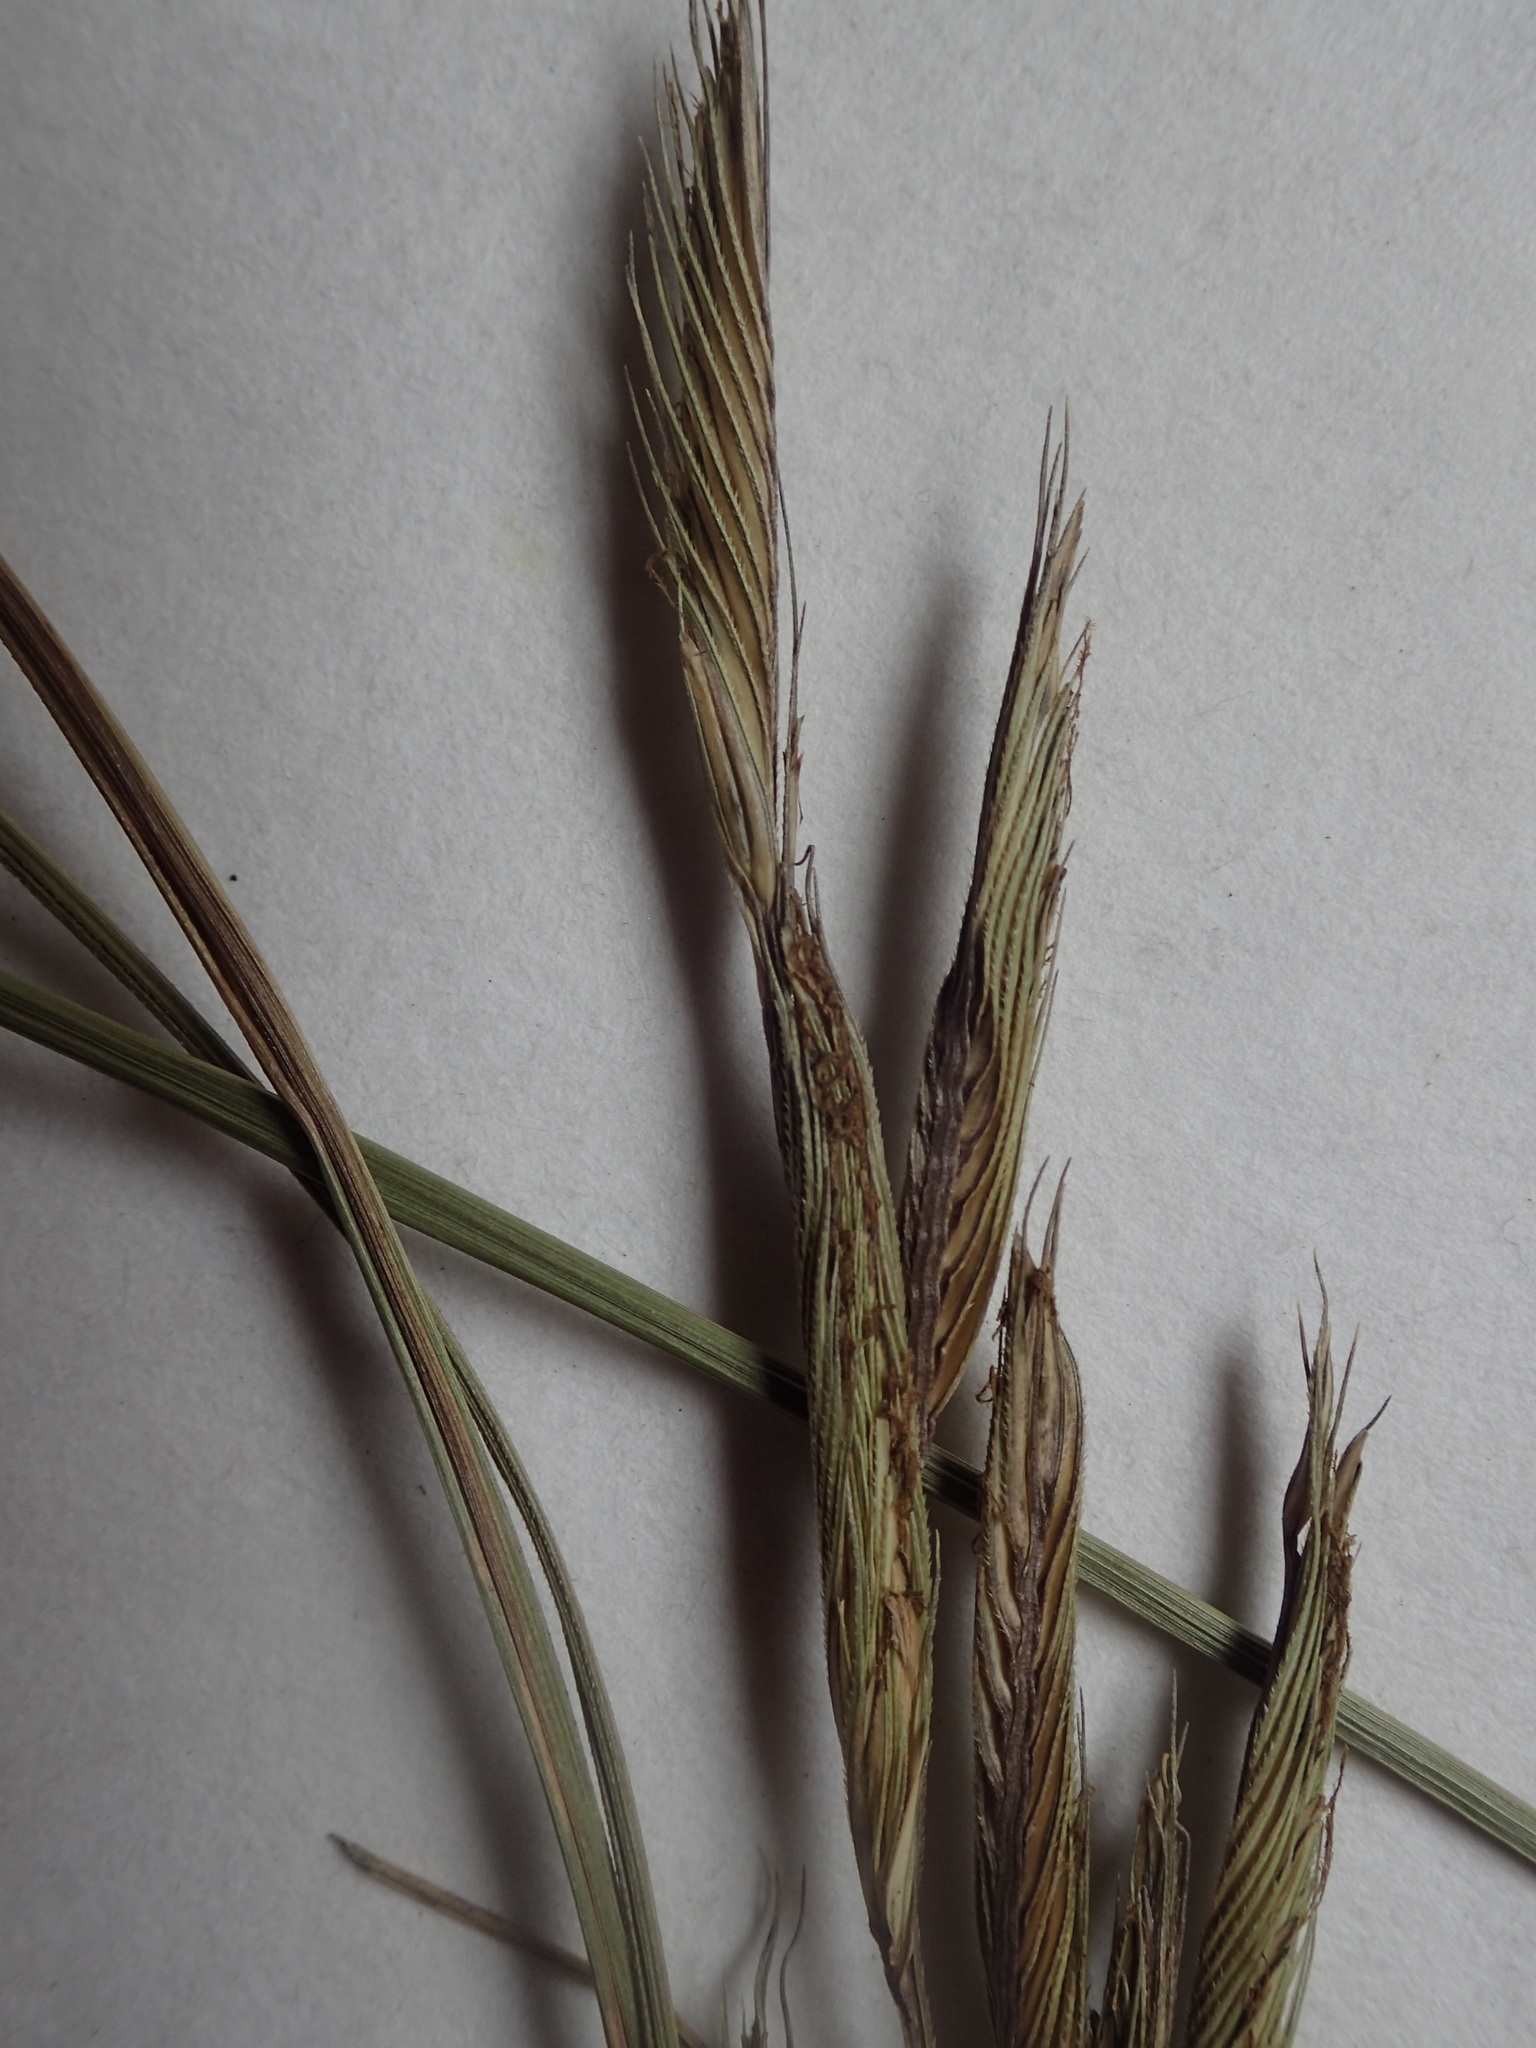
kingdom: Plantae
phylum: Tracheophyta
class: Liliopsida
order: Poales
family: Poaceae
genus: Sporobolus
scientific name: Sporobolus michauxianus
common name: Freshwater cordgrass
